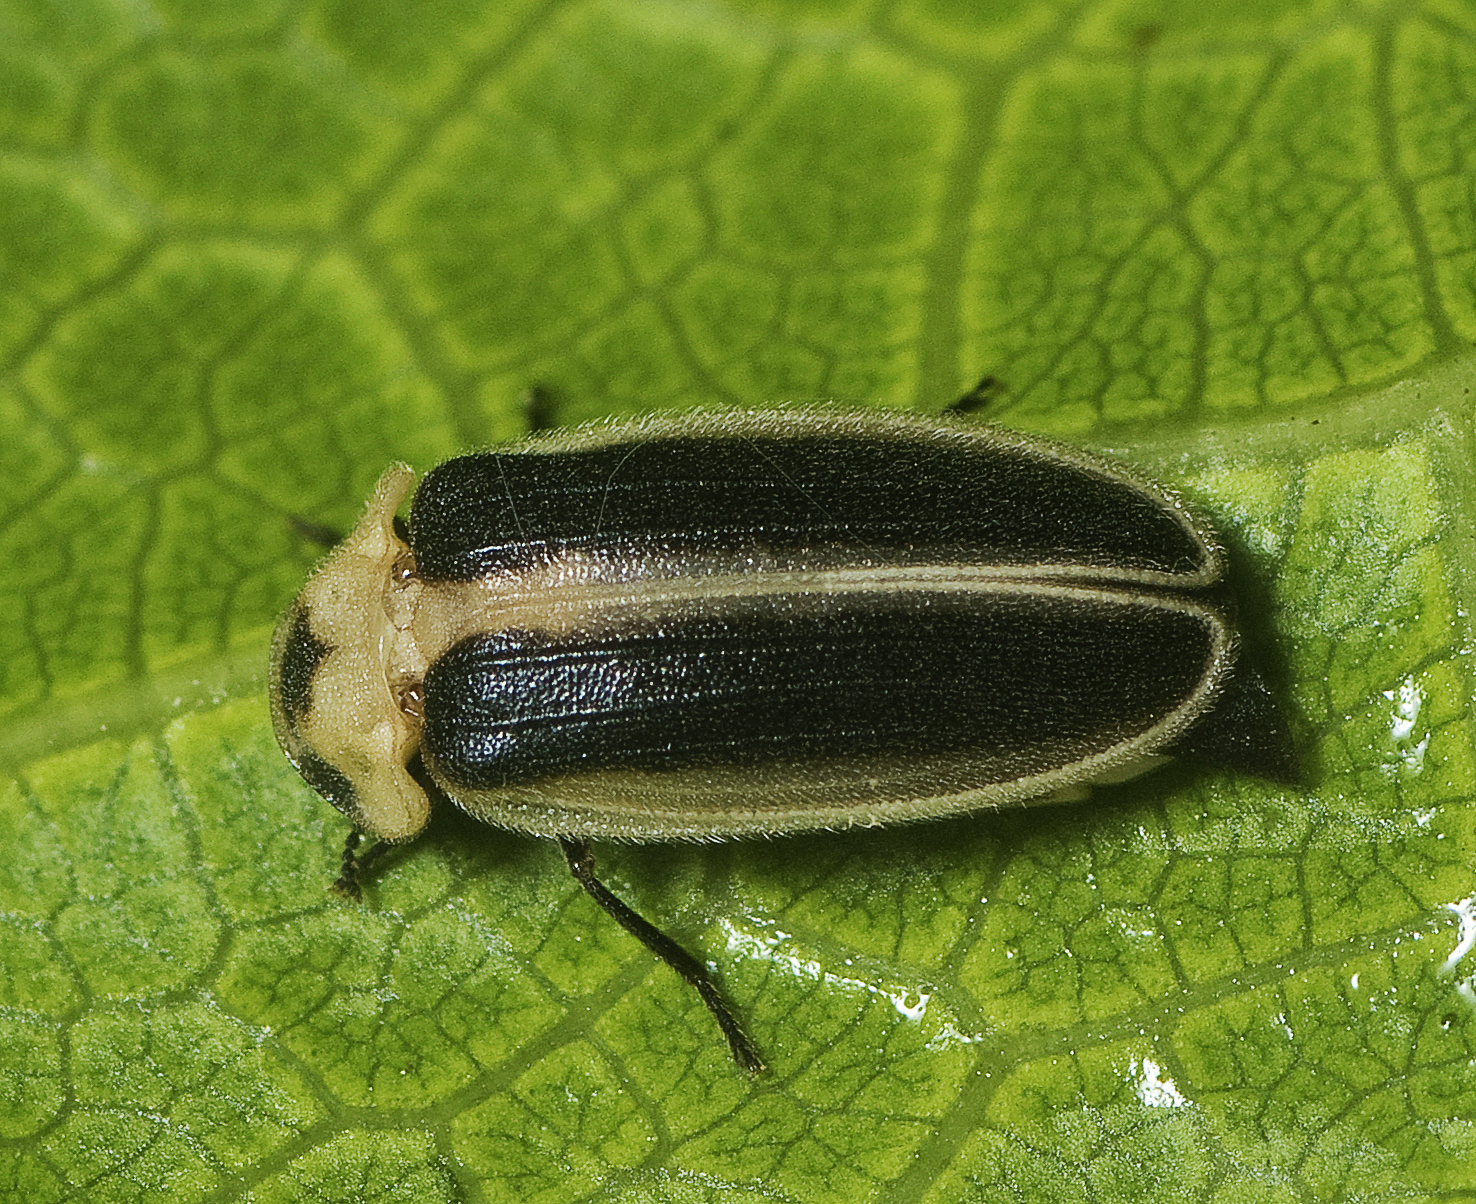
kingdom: Animalia
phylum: Arthropoda
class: Insecta
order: Coleoptera
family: Lampyridae
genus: Atyphella
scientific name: Atyphella olivieri
